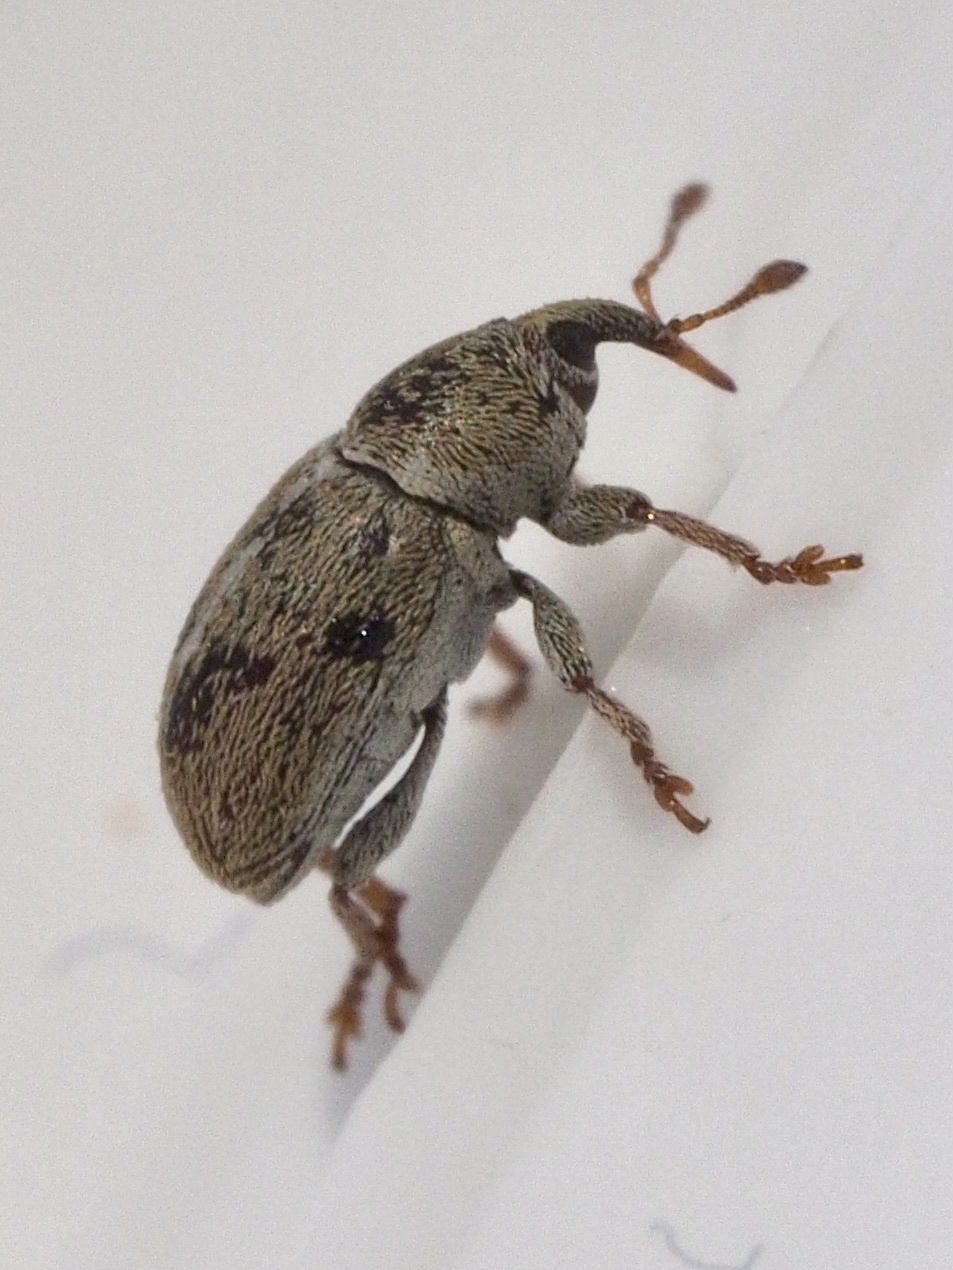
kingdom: Animalia
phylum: Arthropoda
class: Insecta
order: Coleoptera
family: Curculionidae
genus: Tychius
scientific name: Tychius meliloti
